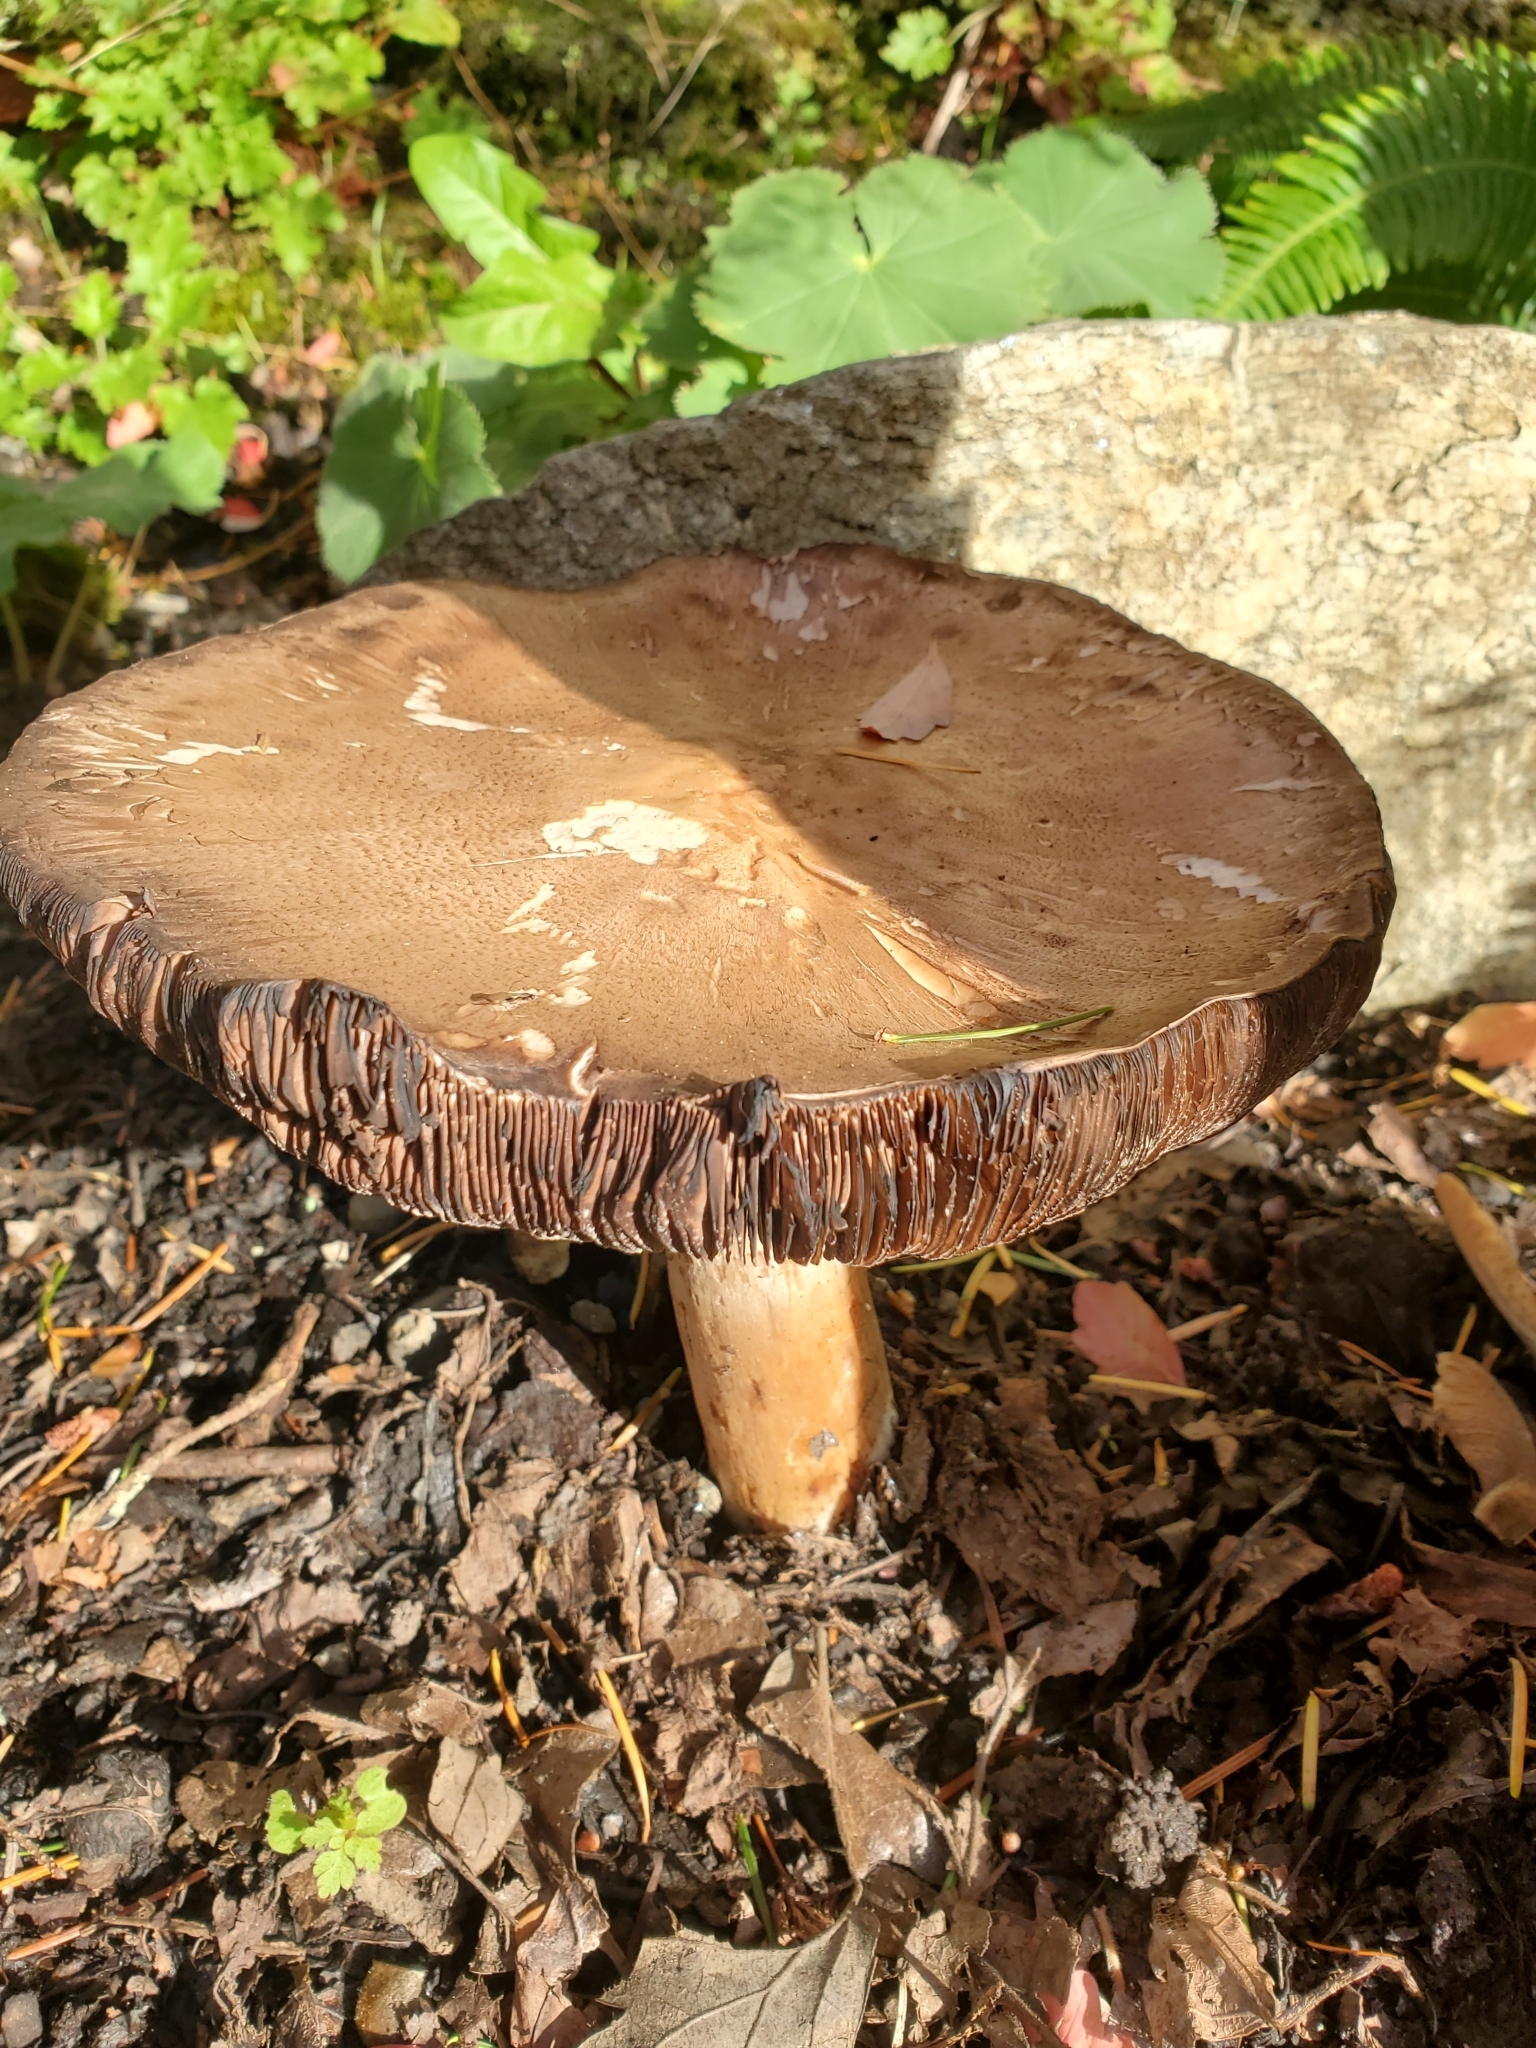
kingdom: Fungi
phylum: Basidiomycota
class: Agaricomycetes
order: Agaricales
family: Strophariaceae
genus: Stropharia
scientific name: Stropharia rugosoannulata
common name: Wine roundhead
